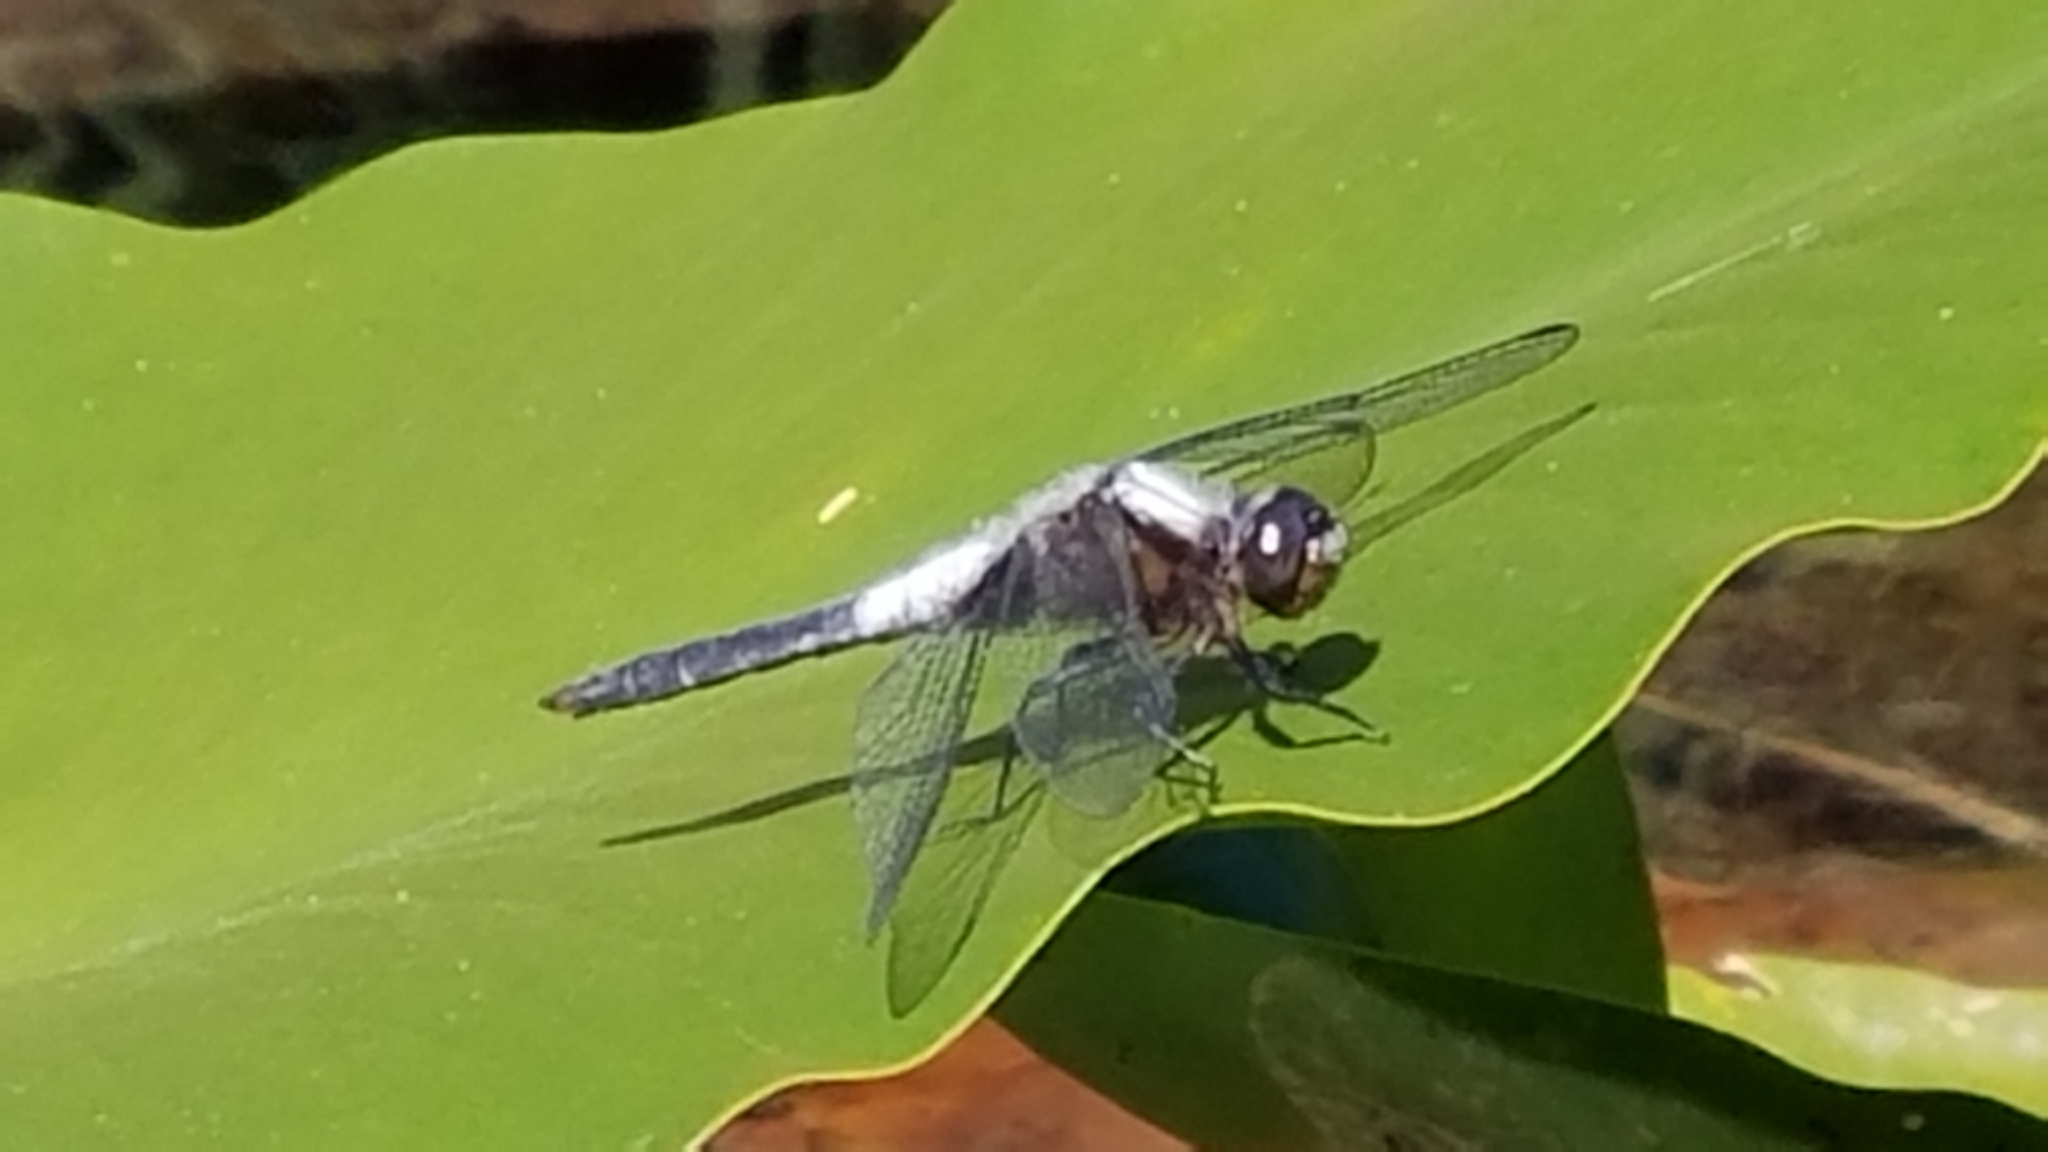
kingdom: Animalia
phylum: Arthropoda
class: Insecta
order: Odonata
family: Libellulidae
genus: Ladona
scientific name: Ladona julia
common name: Chalk-fronted corporal
